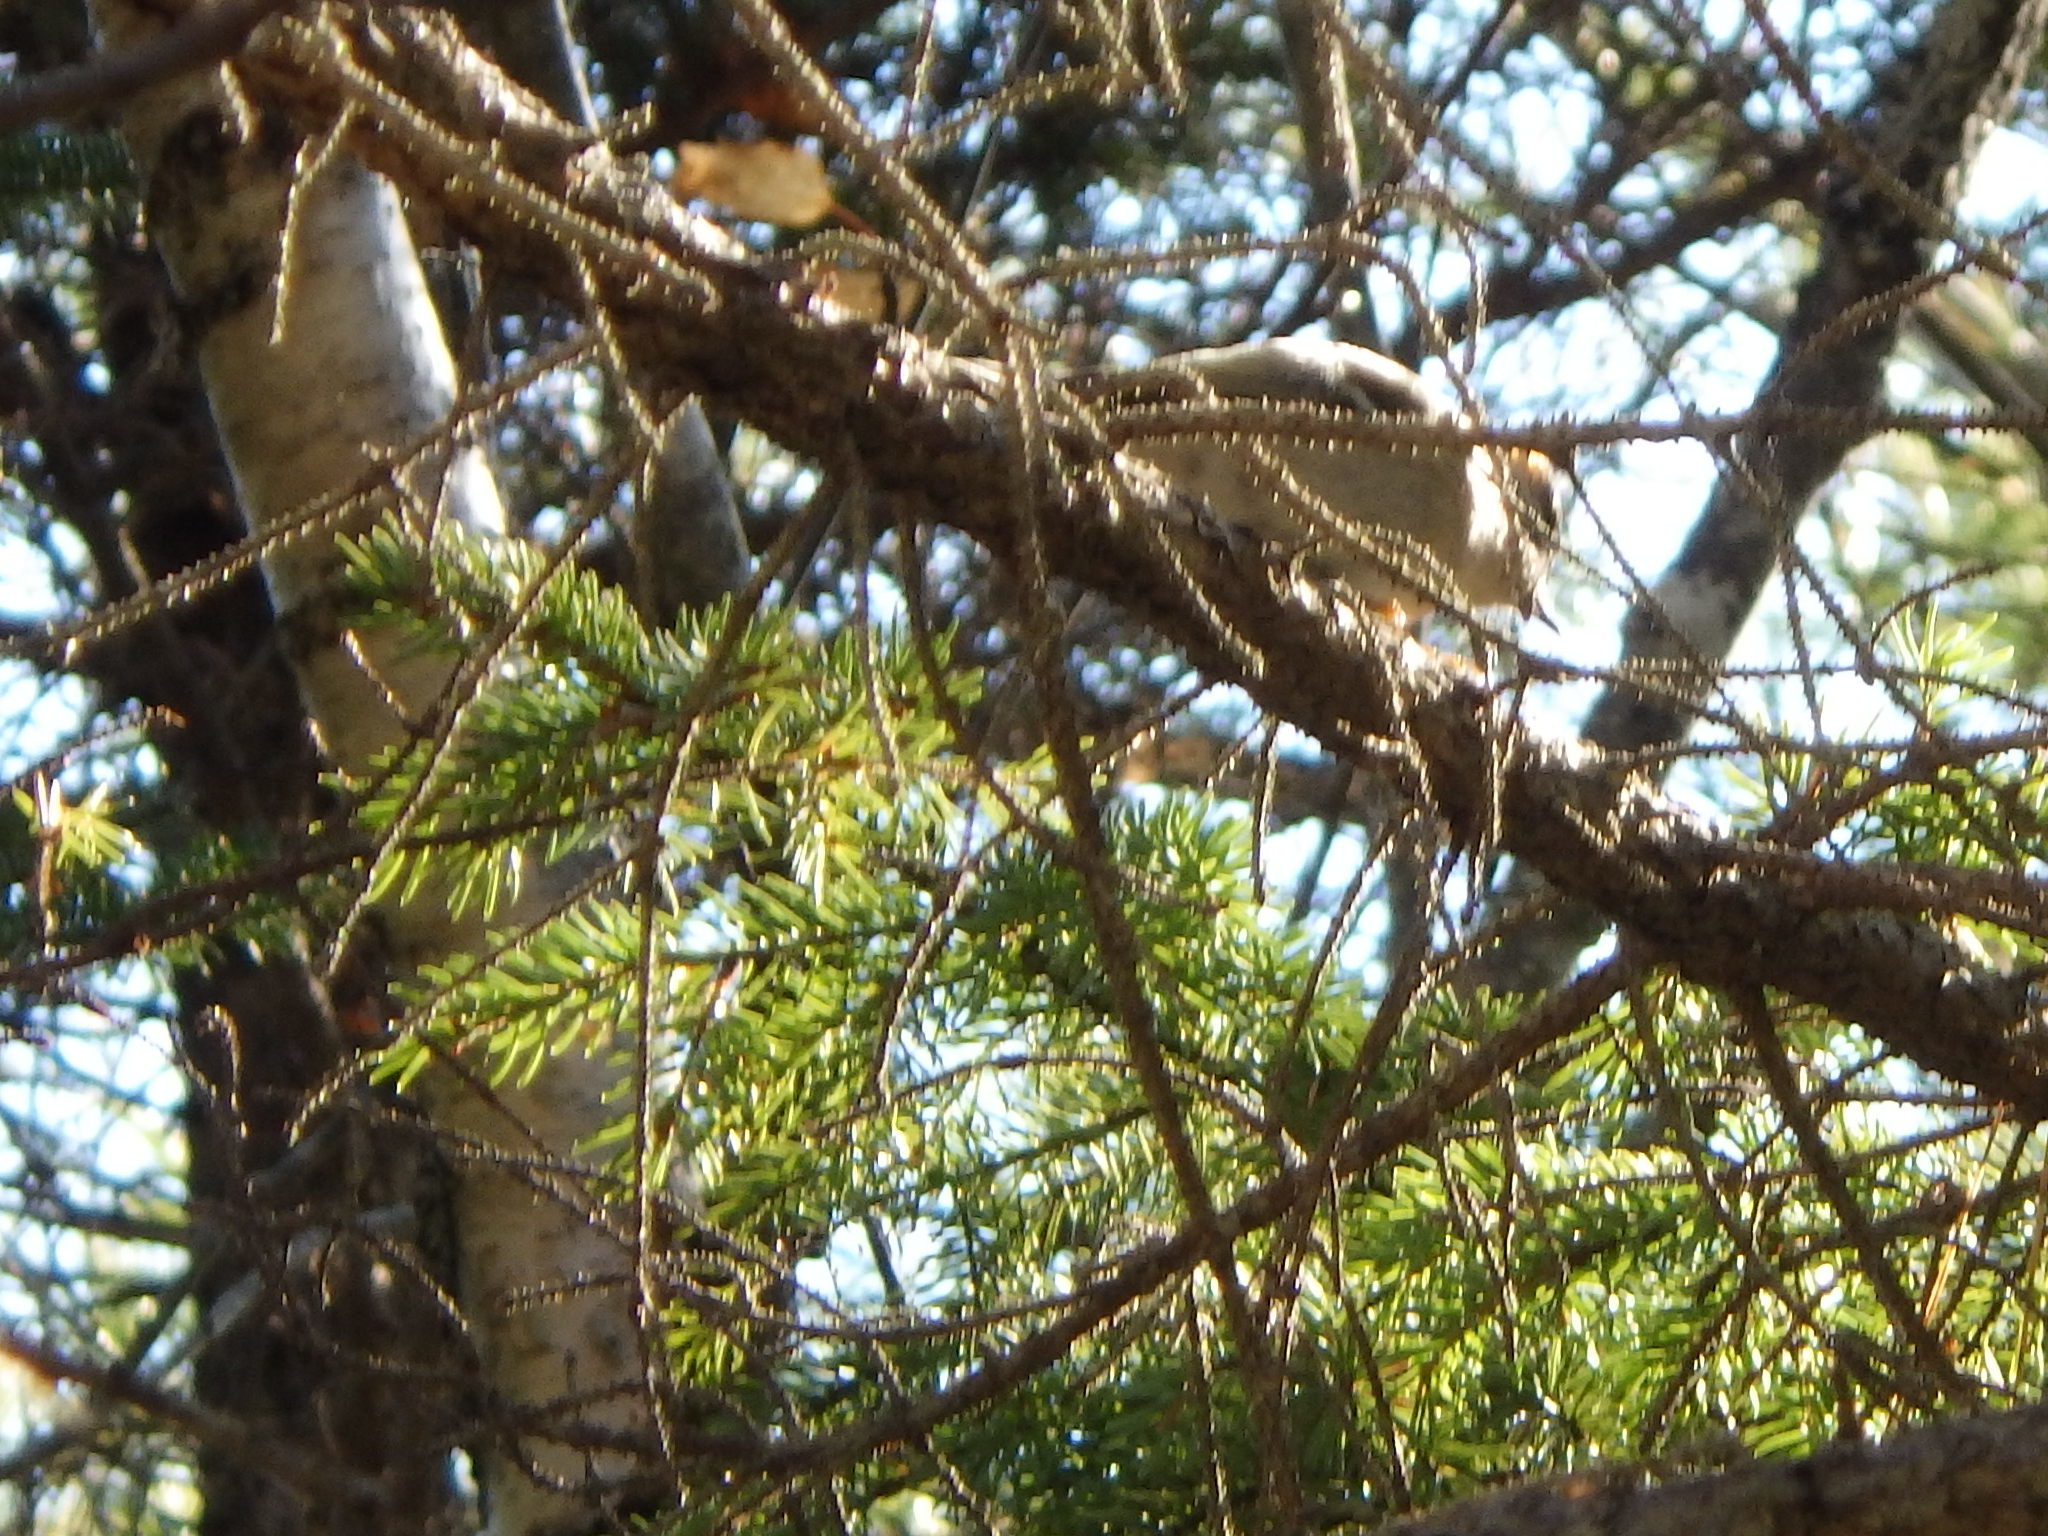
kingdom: Animalia
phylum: Chordata
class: Aves
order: Passeriformes
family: Regulidae
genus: Regulus
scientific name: Regulus satrapa
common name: Golden-crowned kinglet
